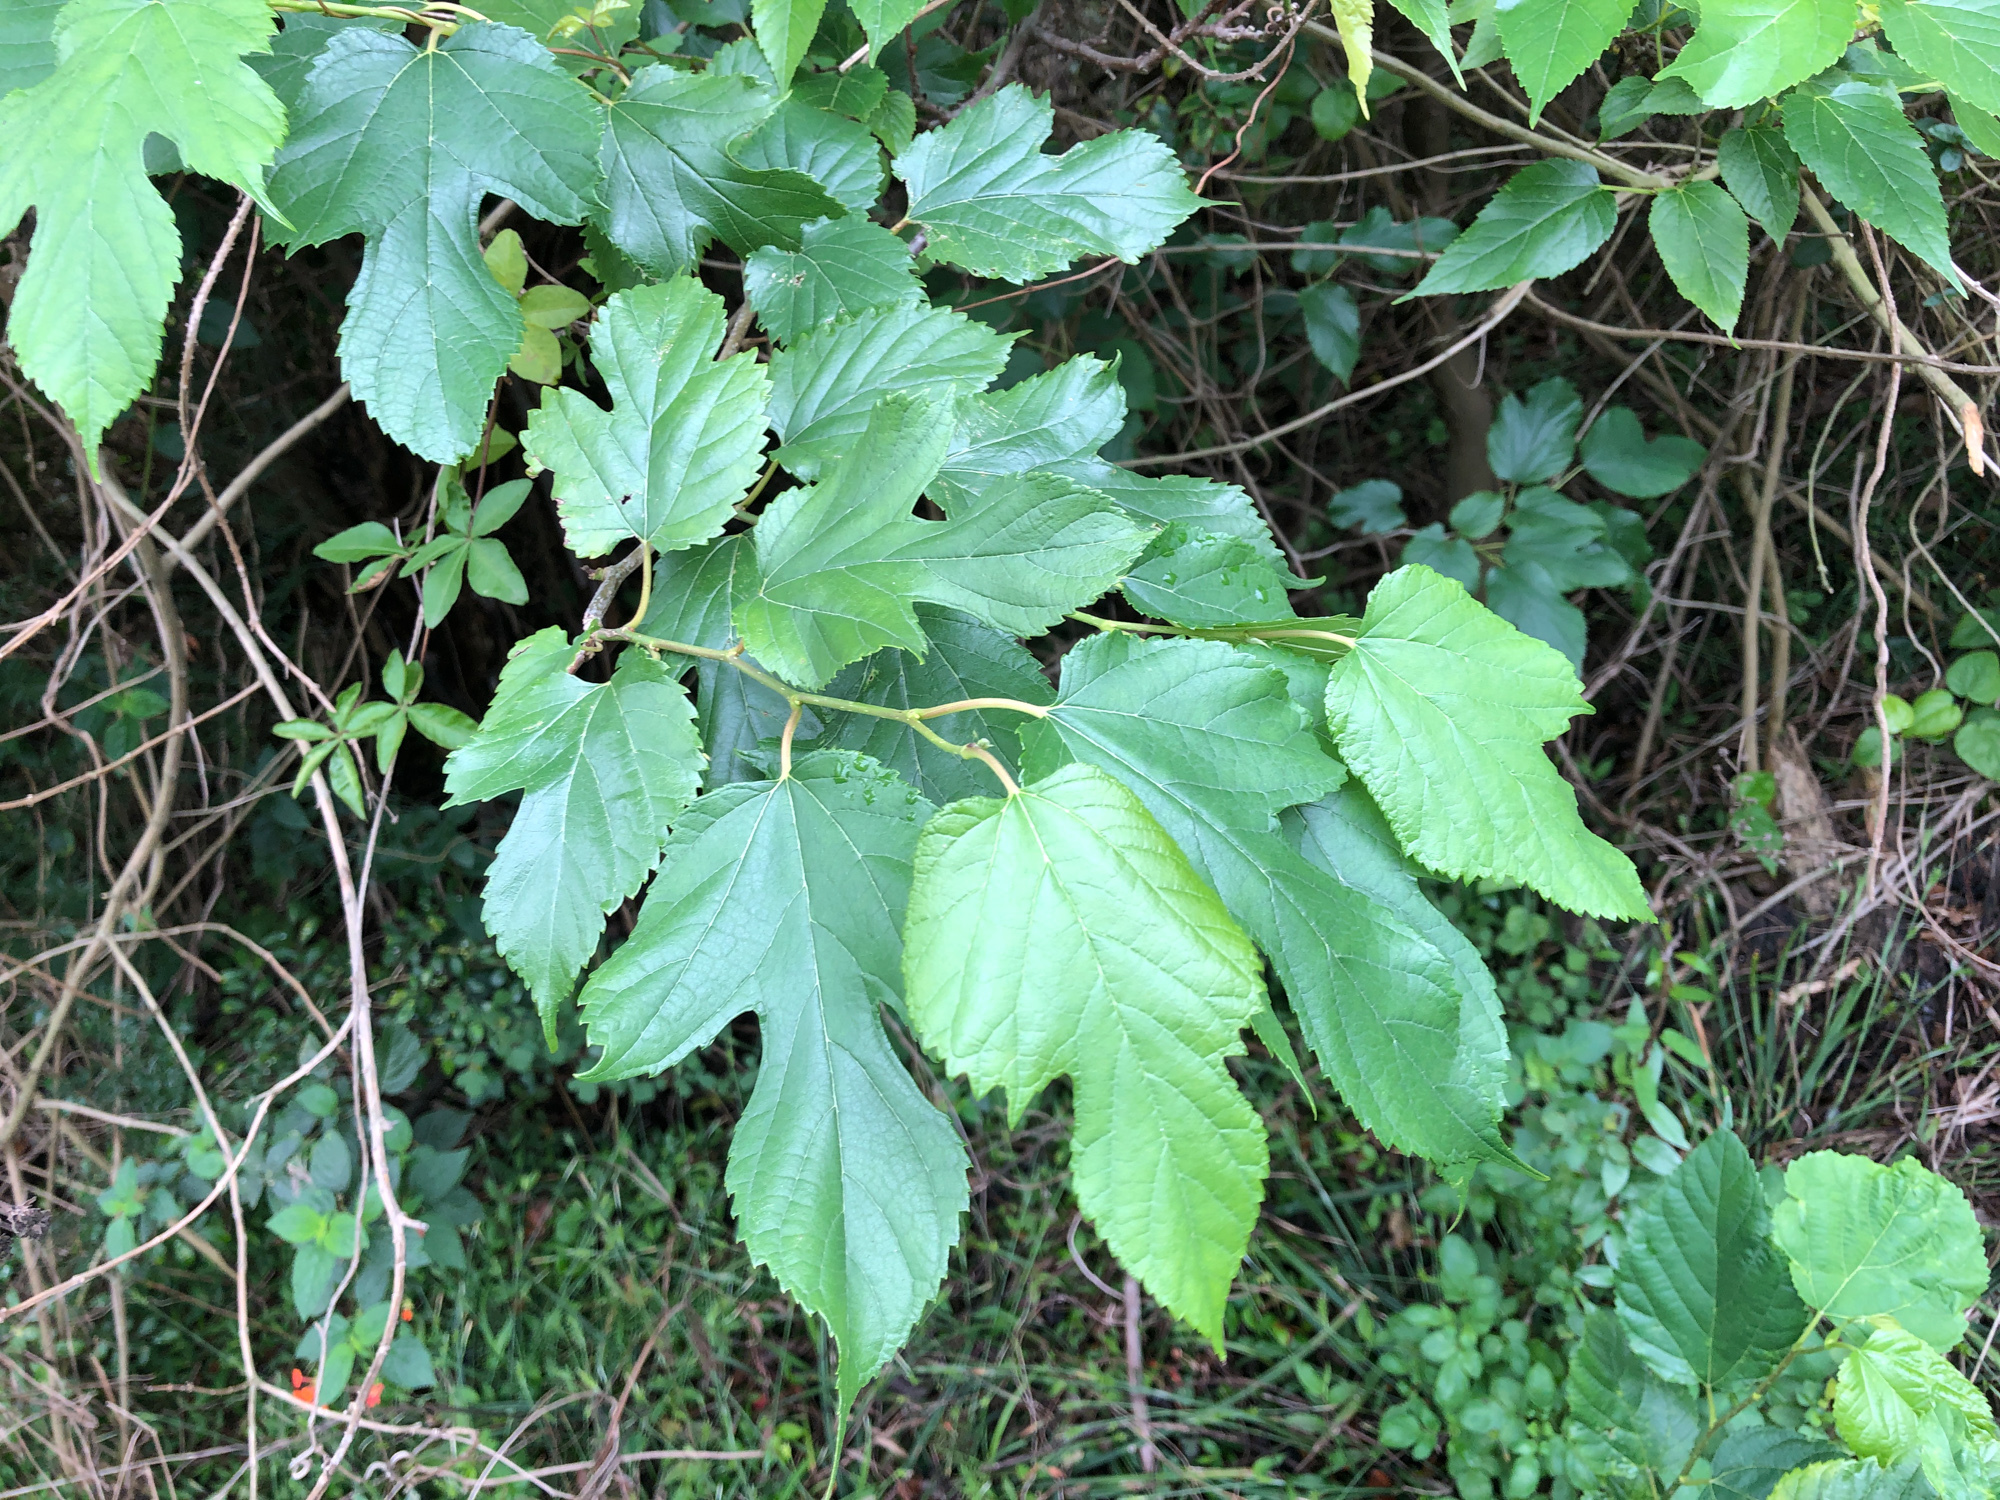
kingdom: Plantae
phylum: Tracheophyta
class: Magnoliopsida
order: Rosales
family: Moraceae
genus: Morus
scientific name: Morus indica
